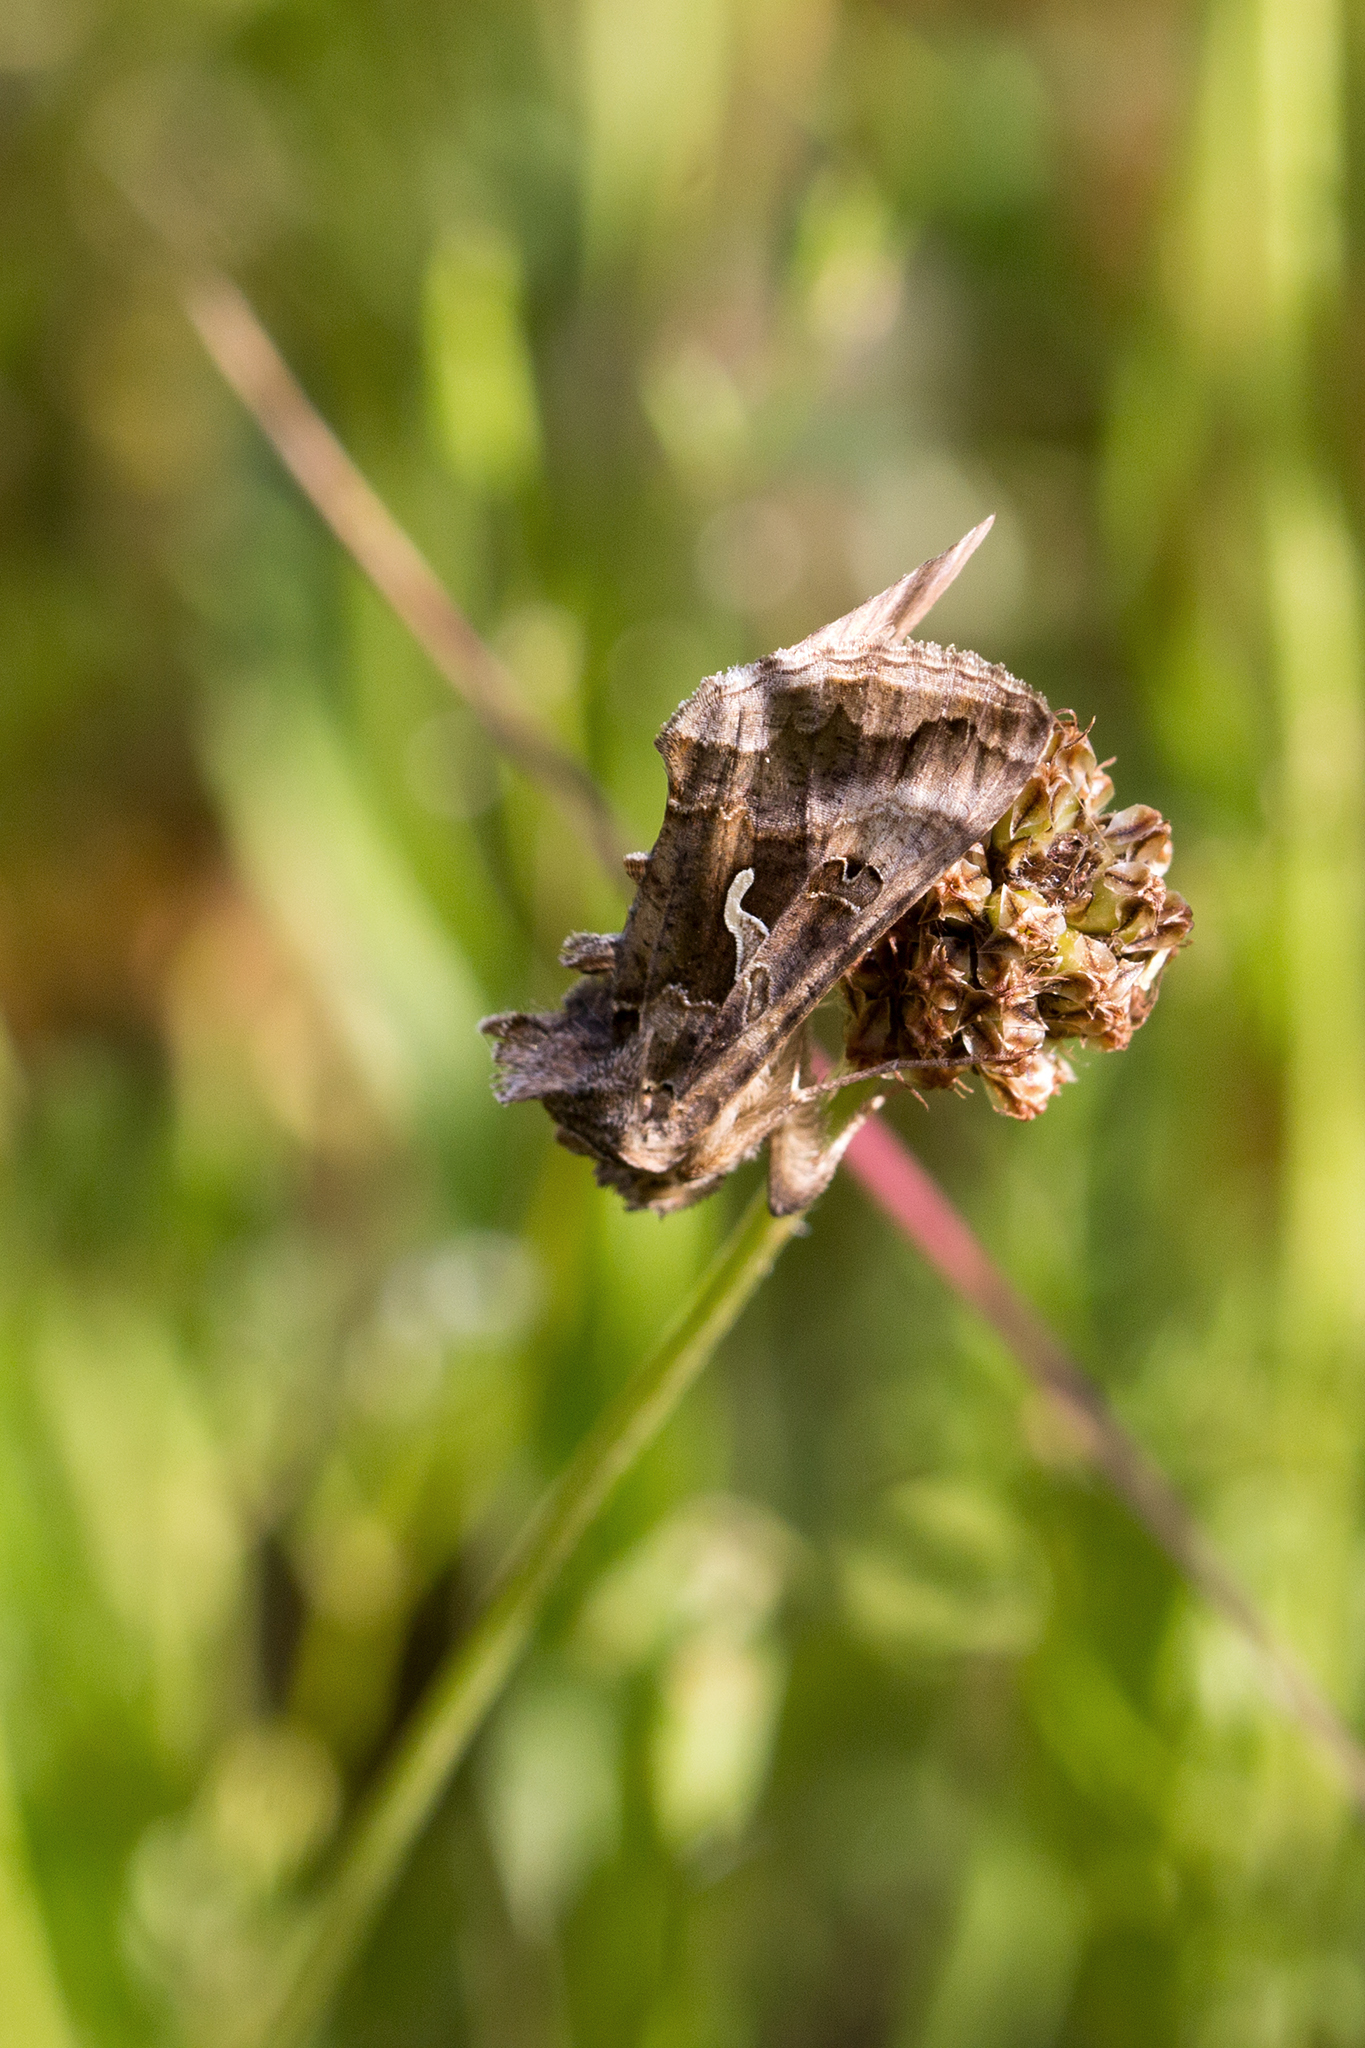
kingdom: Animalia
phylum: Arthropoda
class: Insecta
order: Lepidoptera
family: Noctuidae
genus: Autographa
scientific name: Autographa gamma
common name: Silver y
